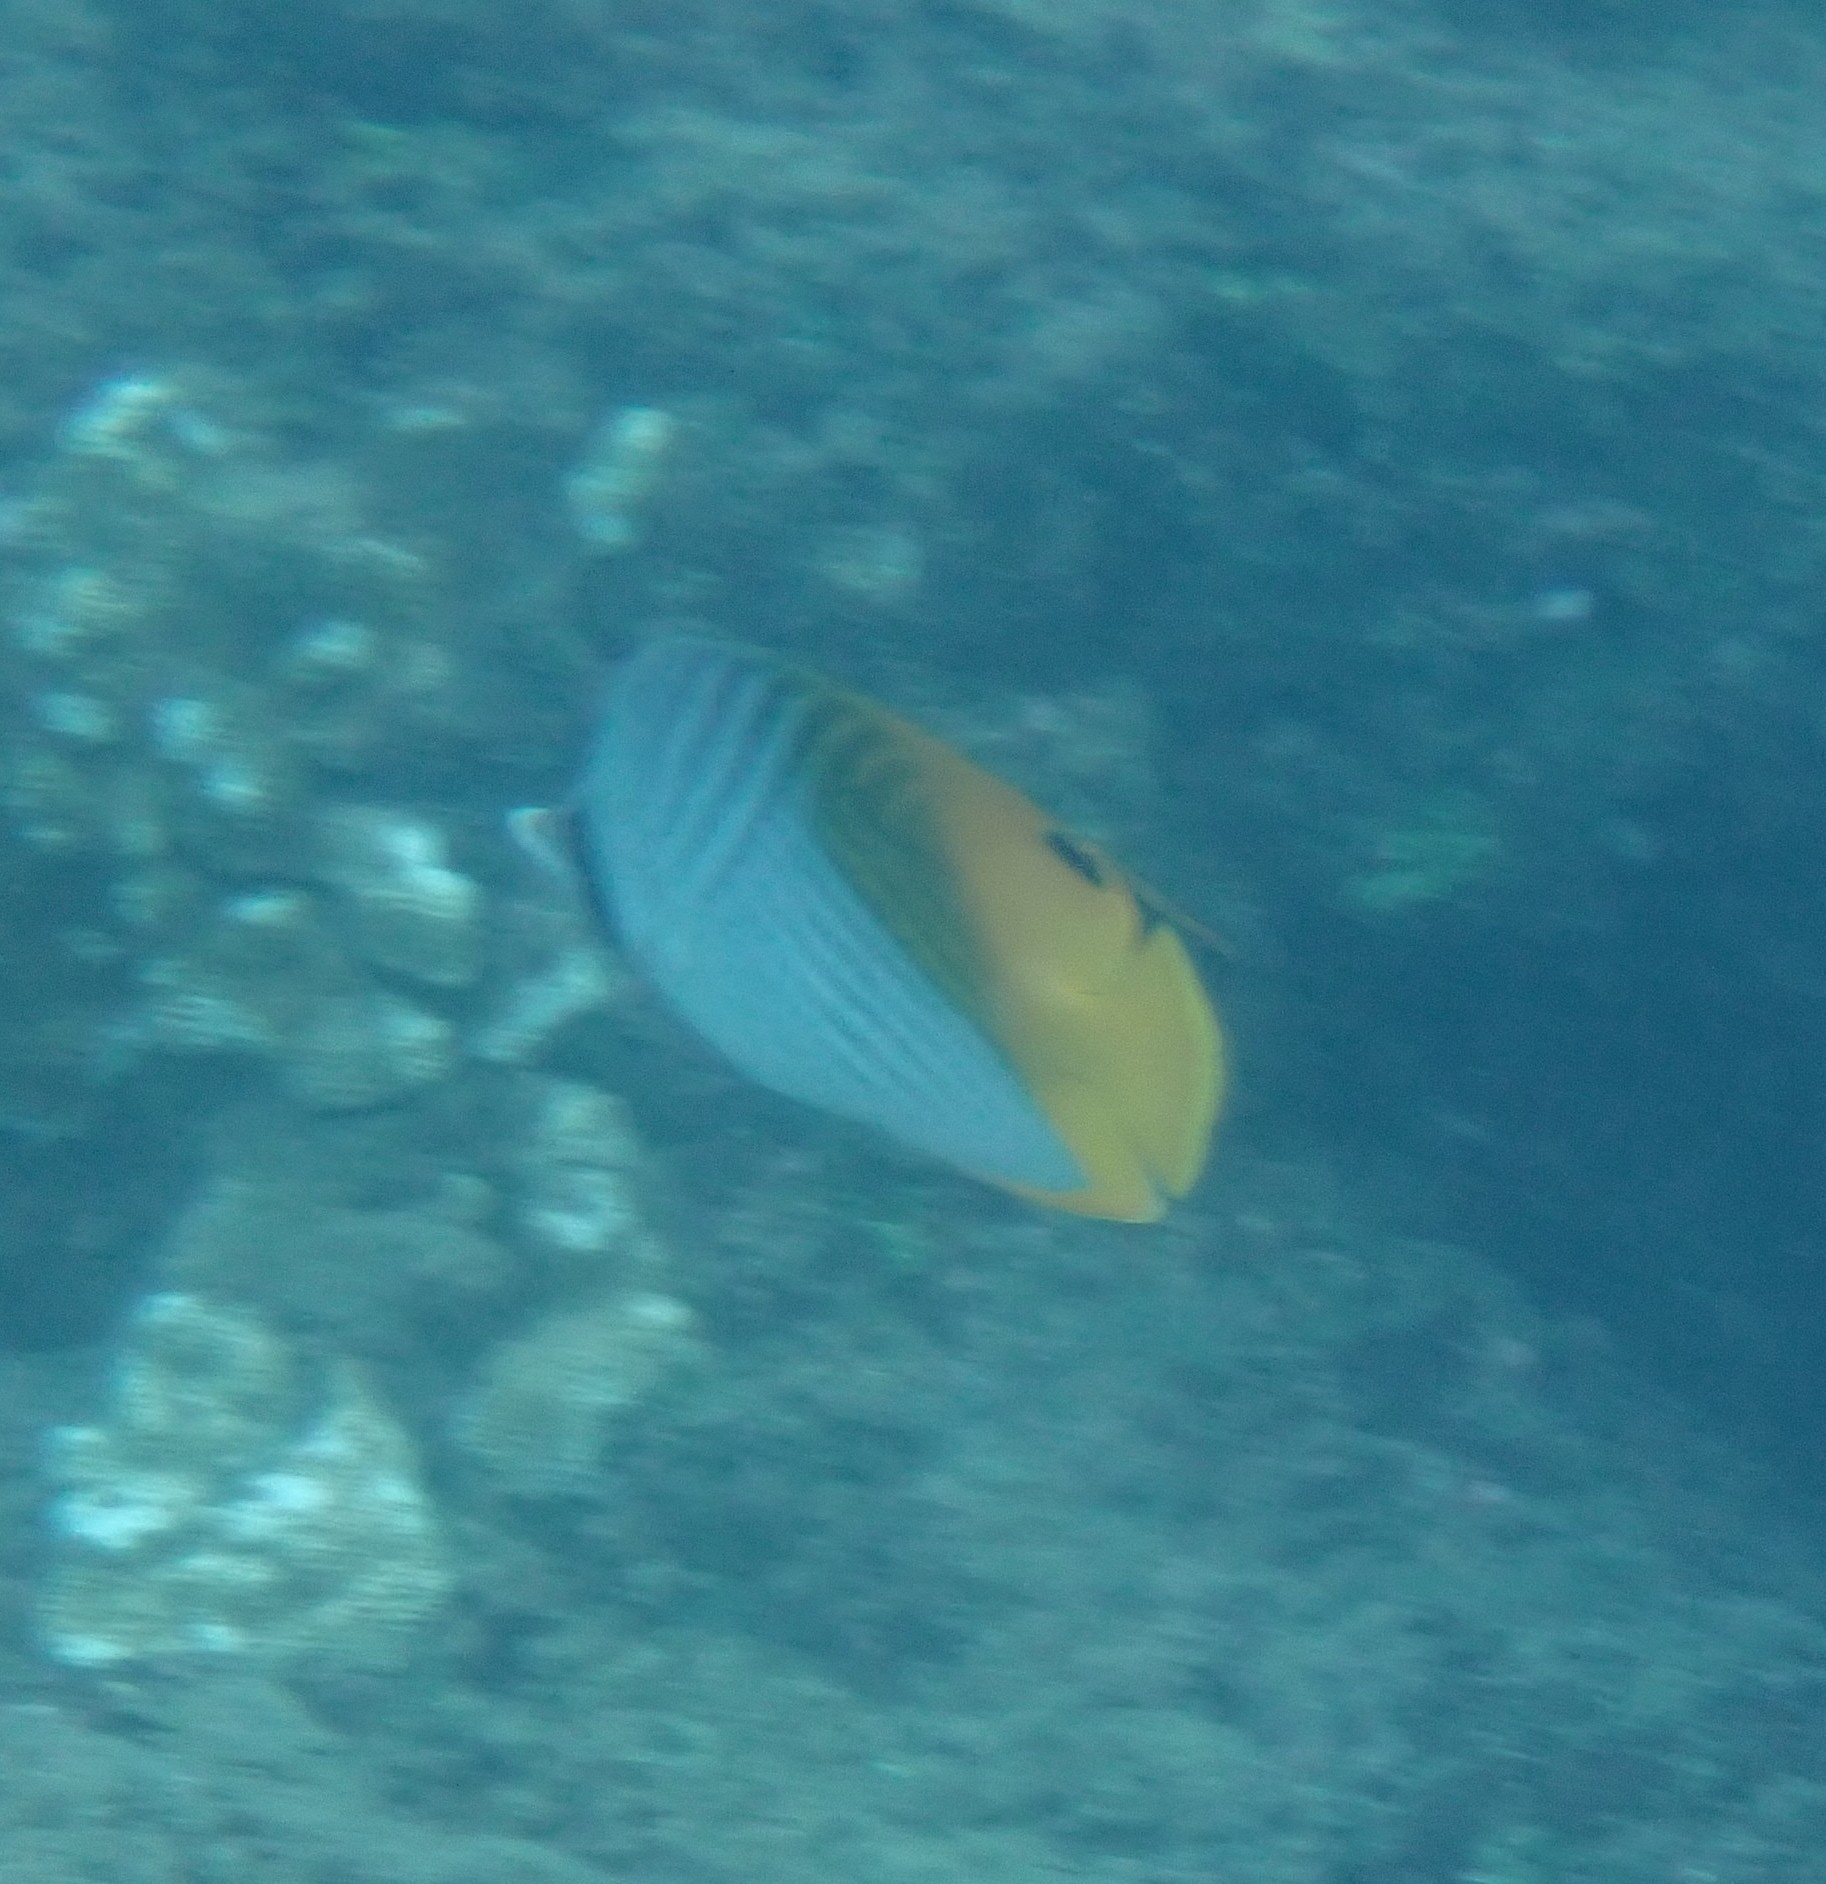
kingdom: Animalia
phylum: Chordata
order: Perciformes
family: Chaetodontidae
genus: Chaetodon
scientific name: Chaetodon auriga
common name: Threadfin butterflyfish
